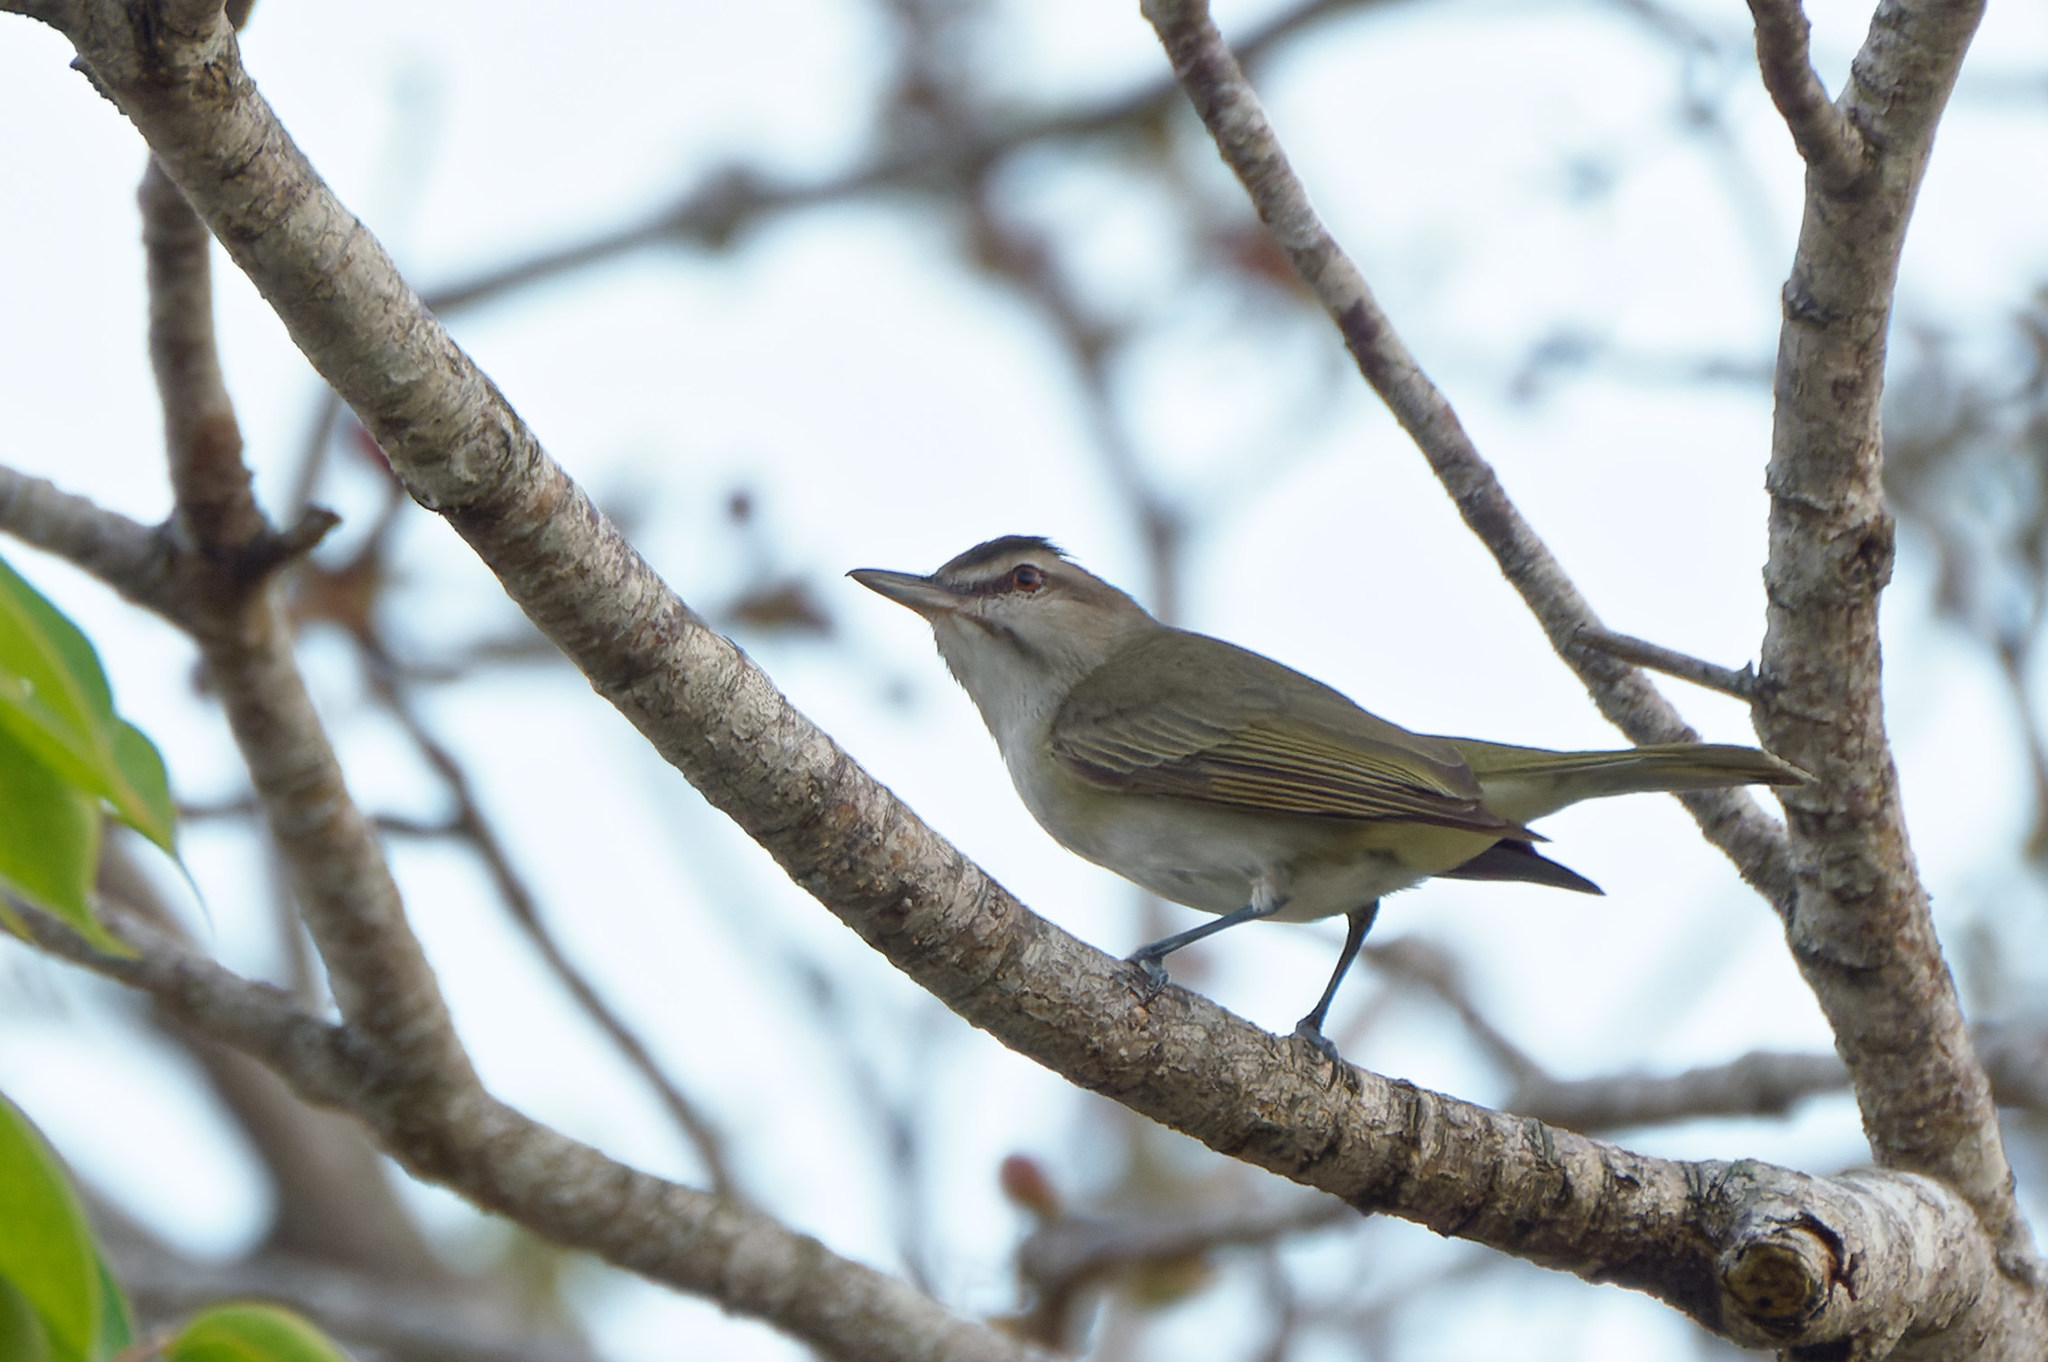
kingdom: Animalia
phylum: Chordata
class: Aves
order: Passeriformes
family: Vireonidae
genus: Vireo
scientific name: Vireo altiloquus
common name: Black-whiskered vireo
